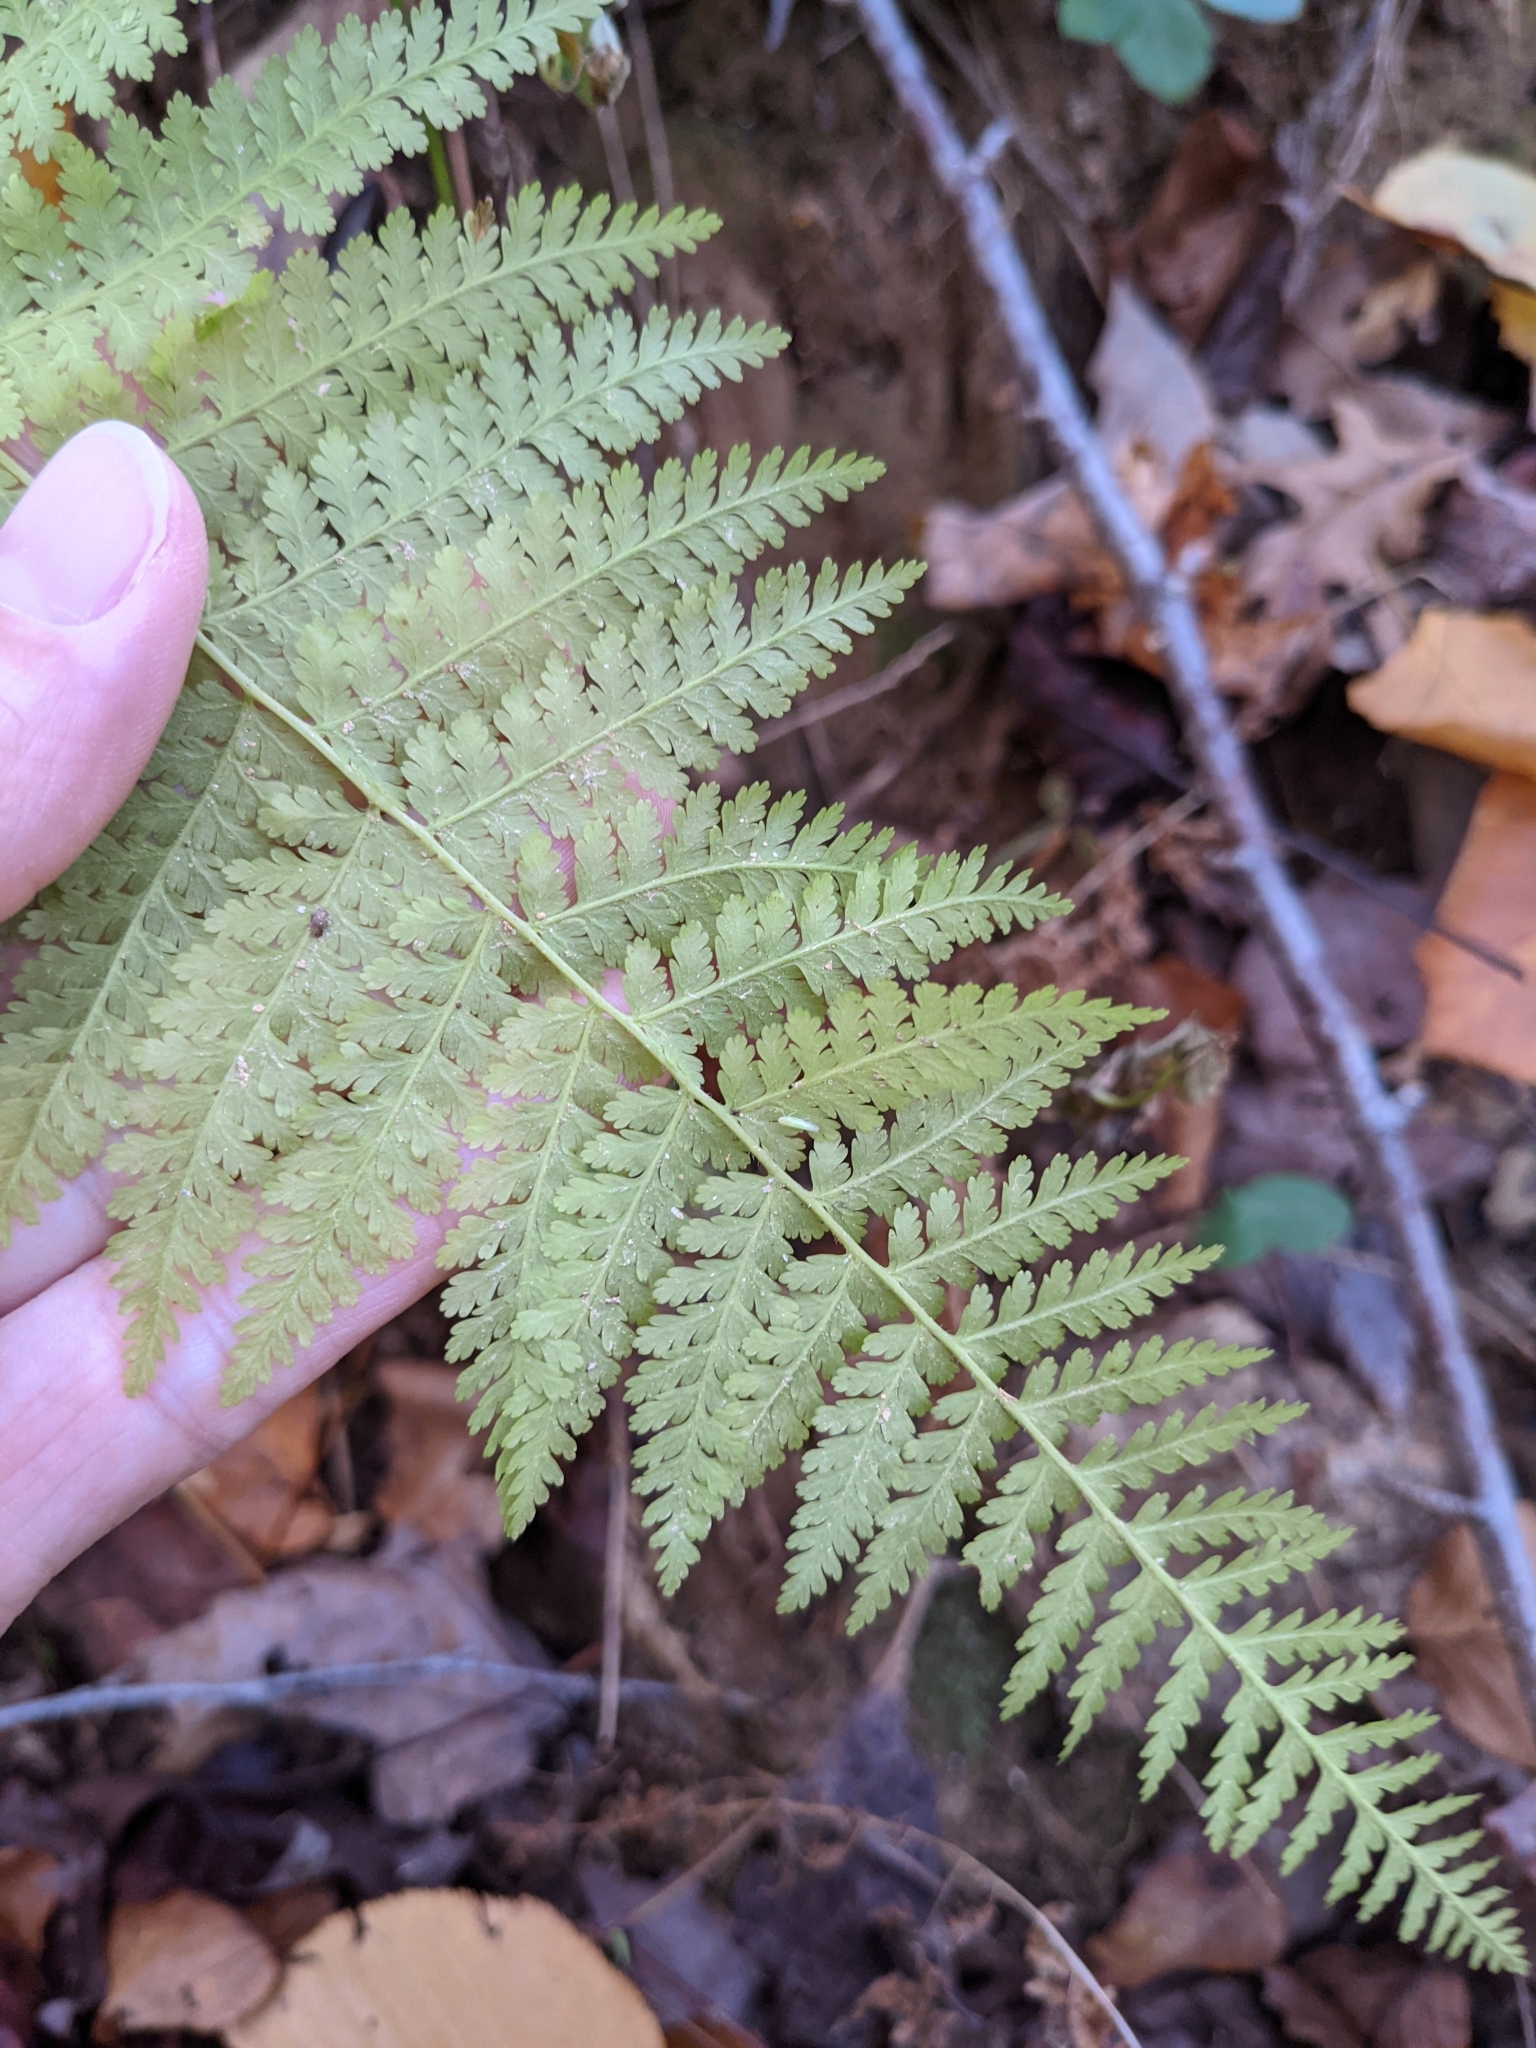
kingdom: Plantae
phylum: Tracheophyta
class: Polypodiopsida
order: Polypodiales
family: Dennstaedtiaceae
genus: Sitobolium
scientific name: Sitobolium punctilobum
